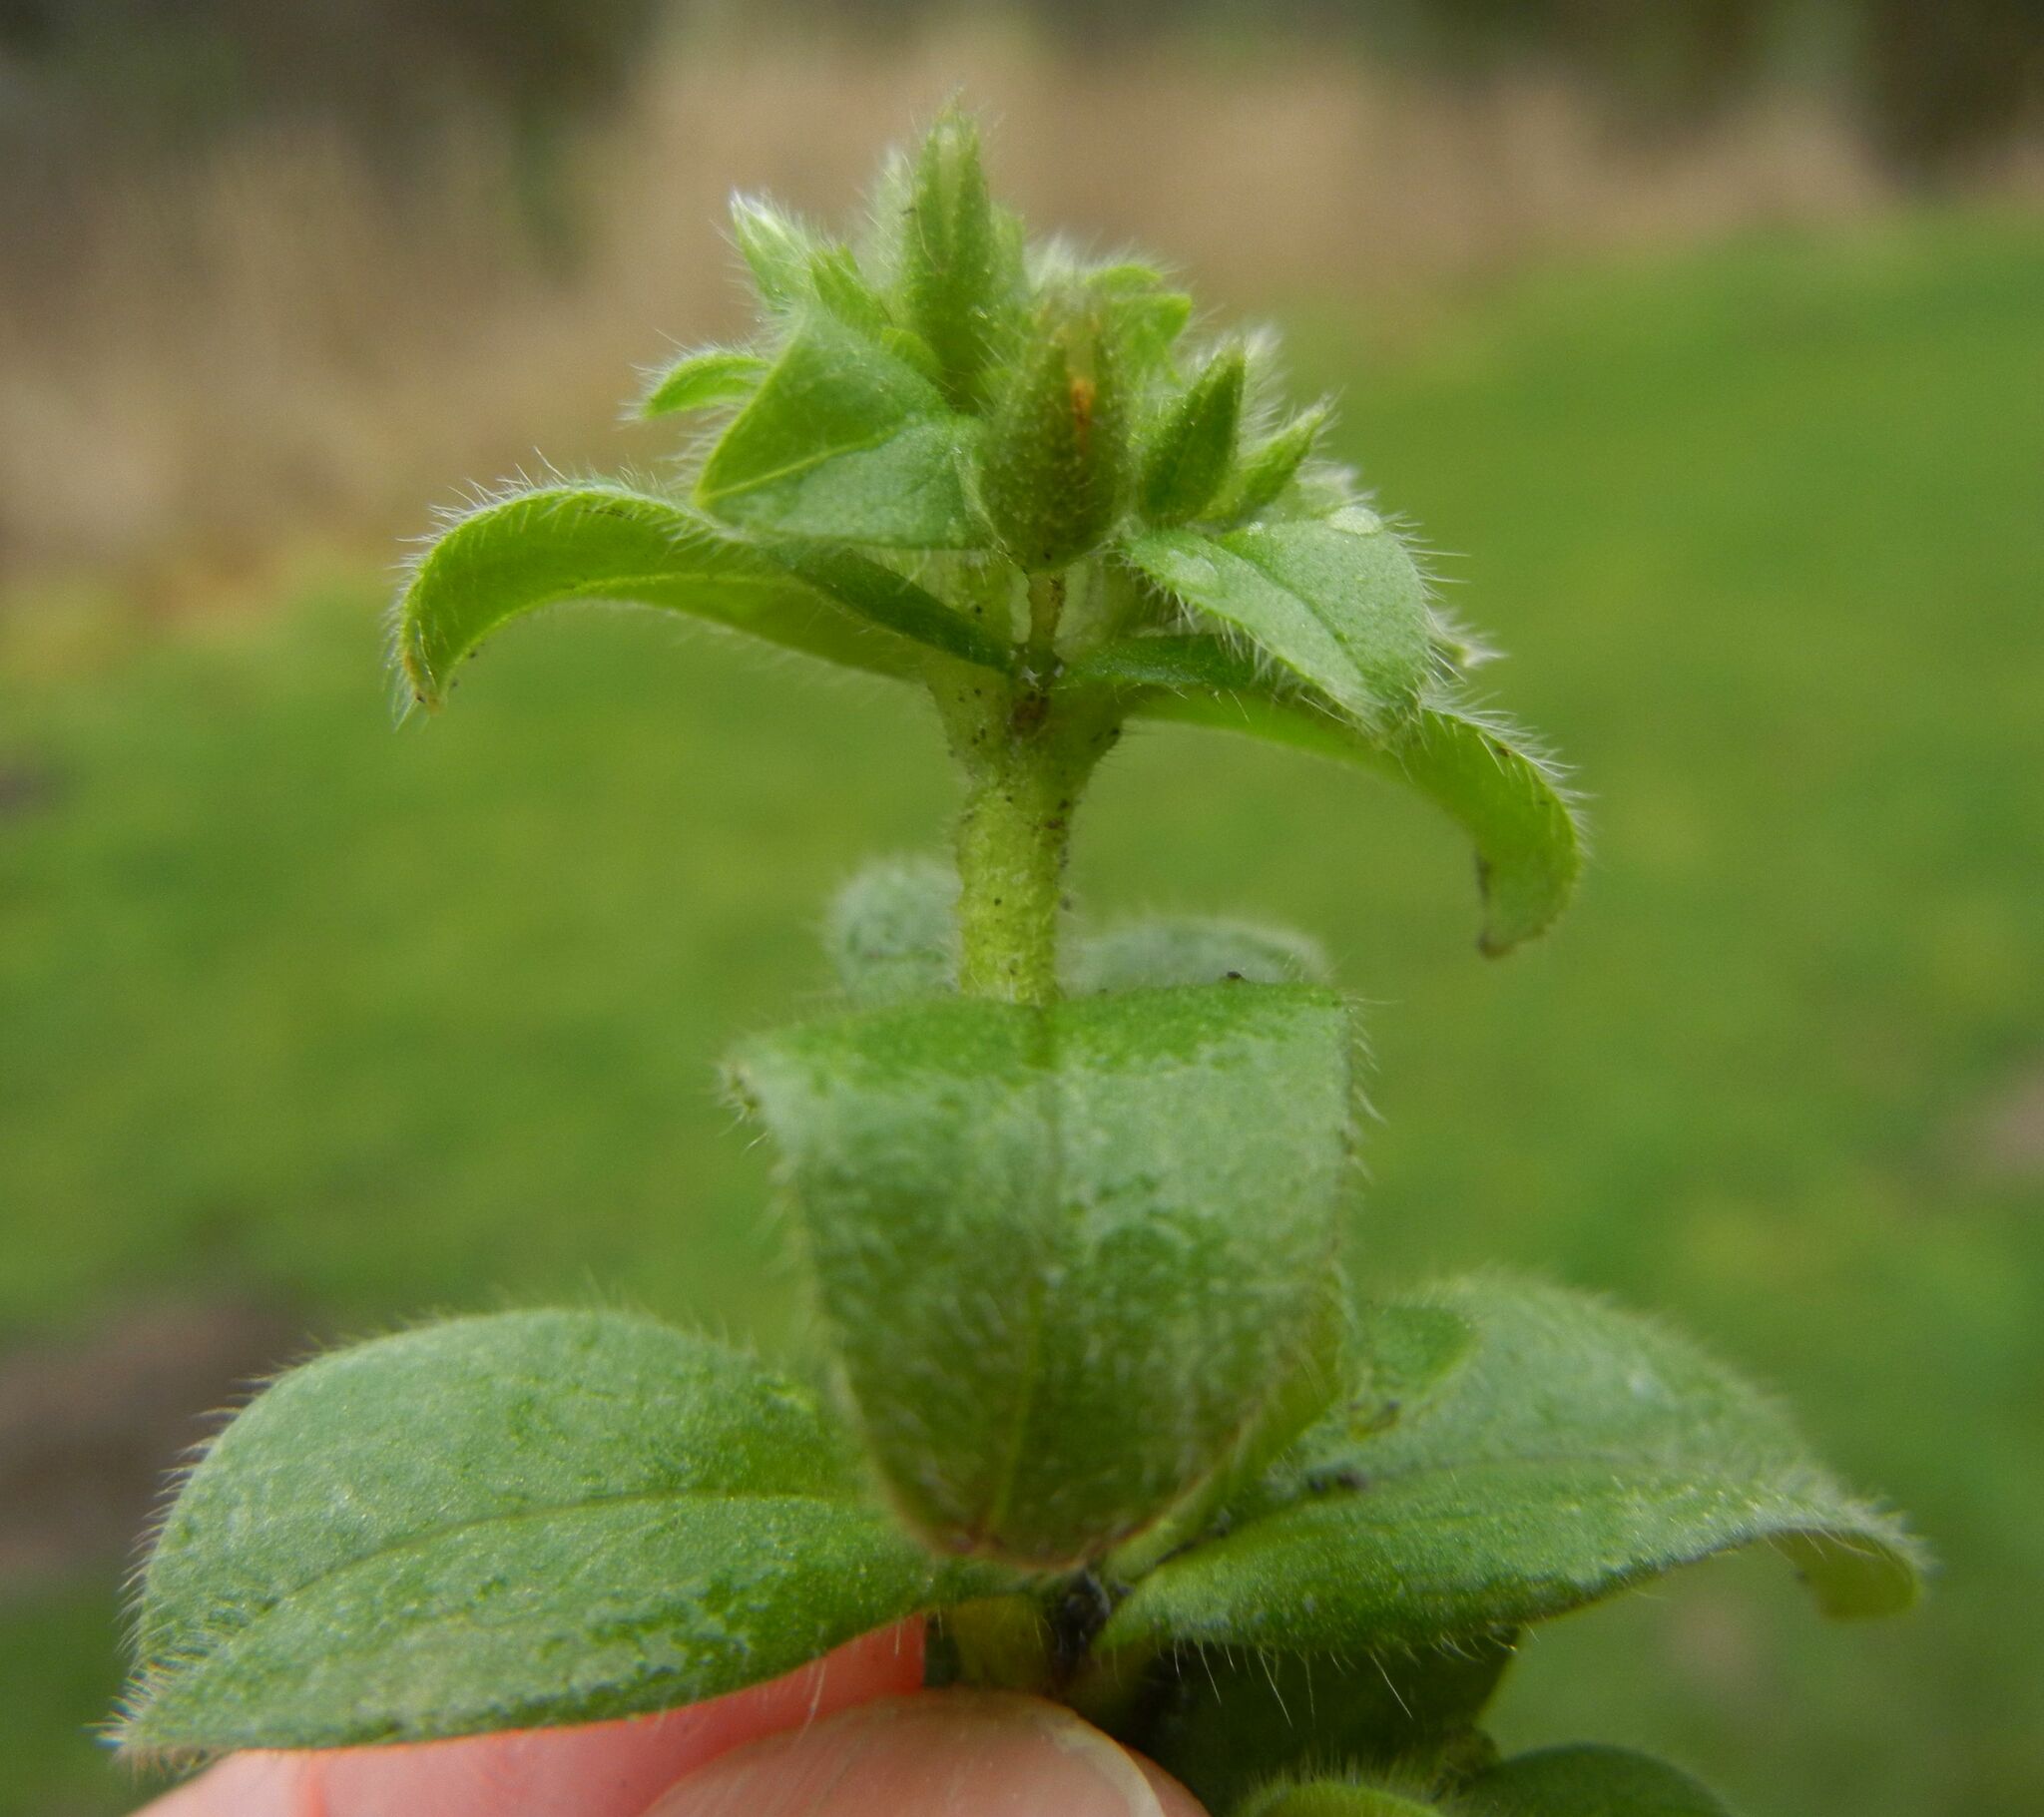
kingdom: Plantae
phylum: Tracheophyta
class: Magnoliopsida
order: Caryophyllales
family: Caryophyllaceae
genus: Cerastium
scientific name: Cerastium glomeratum
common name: Sticky chickweed
